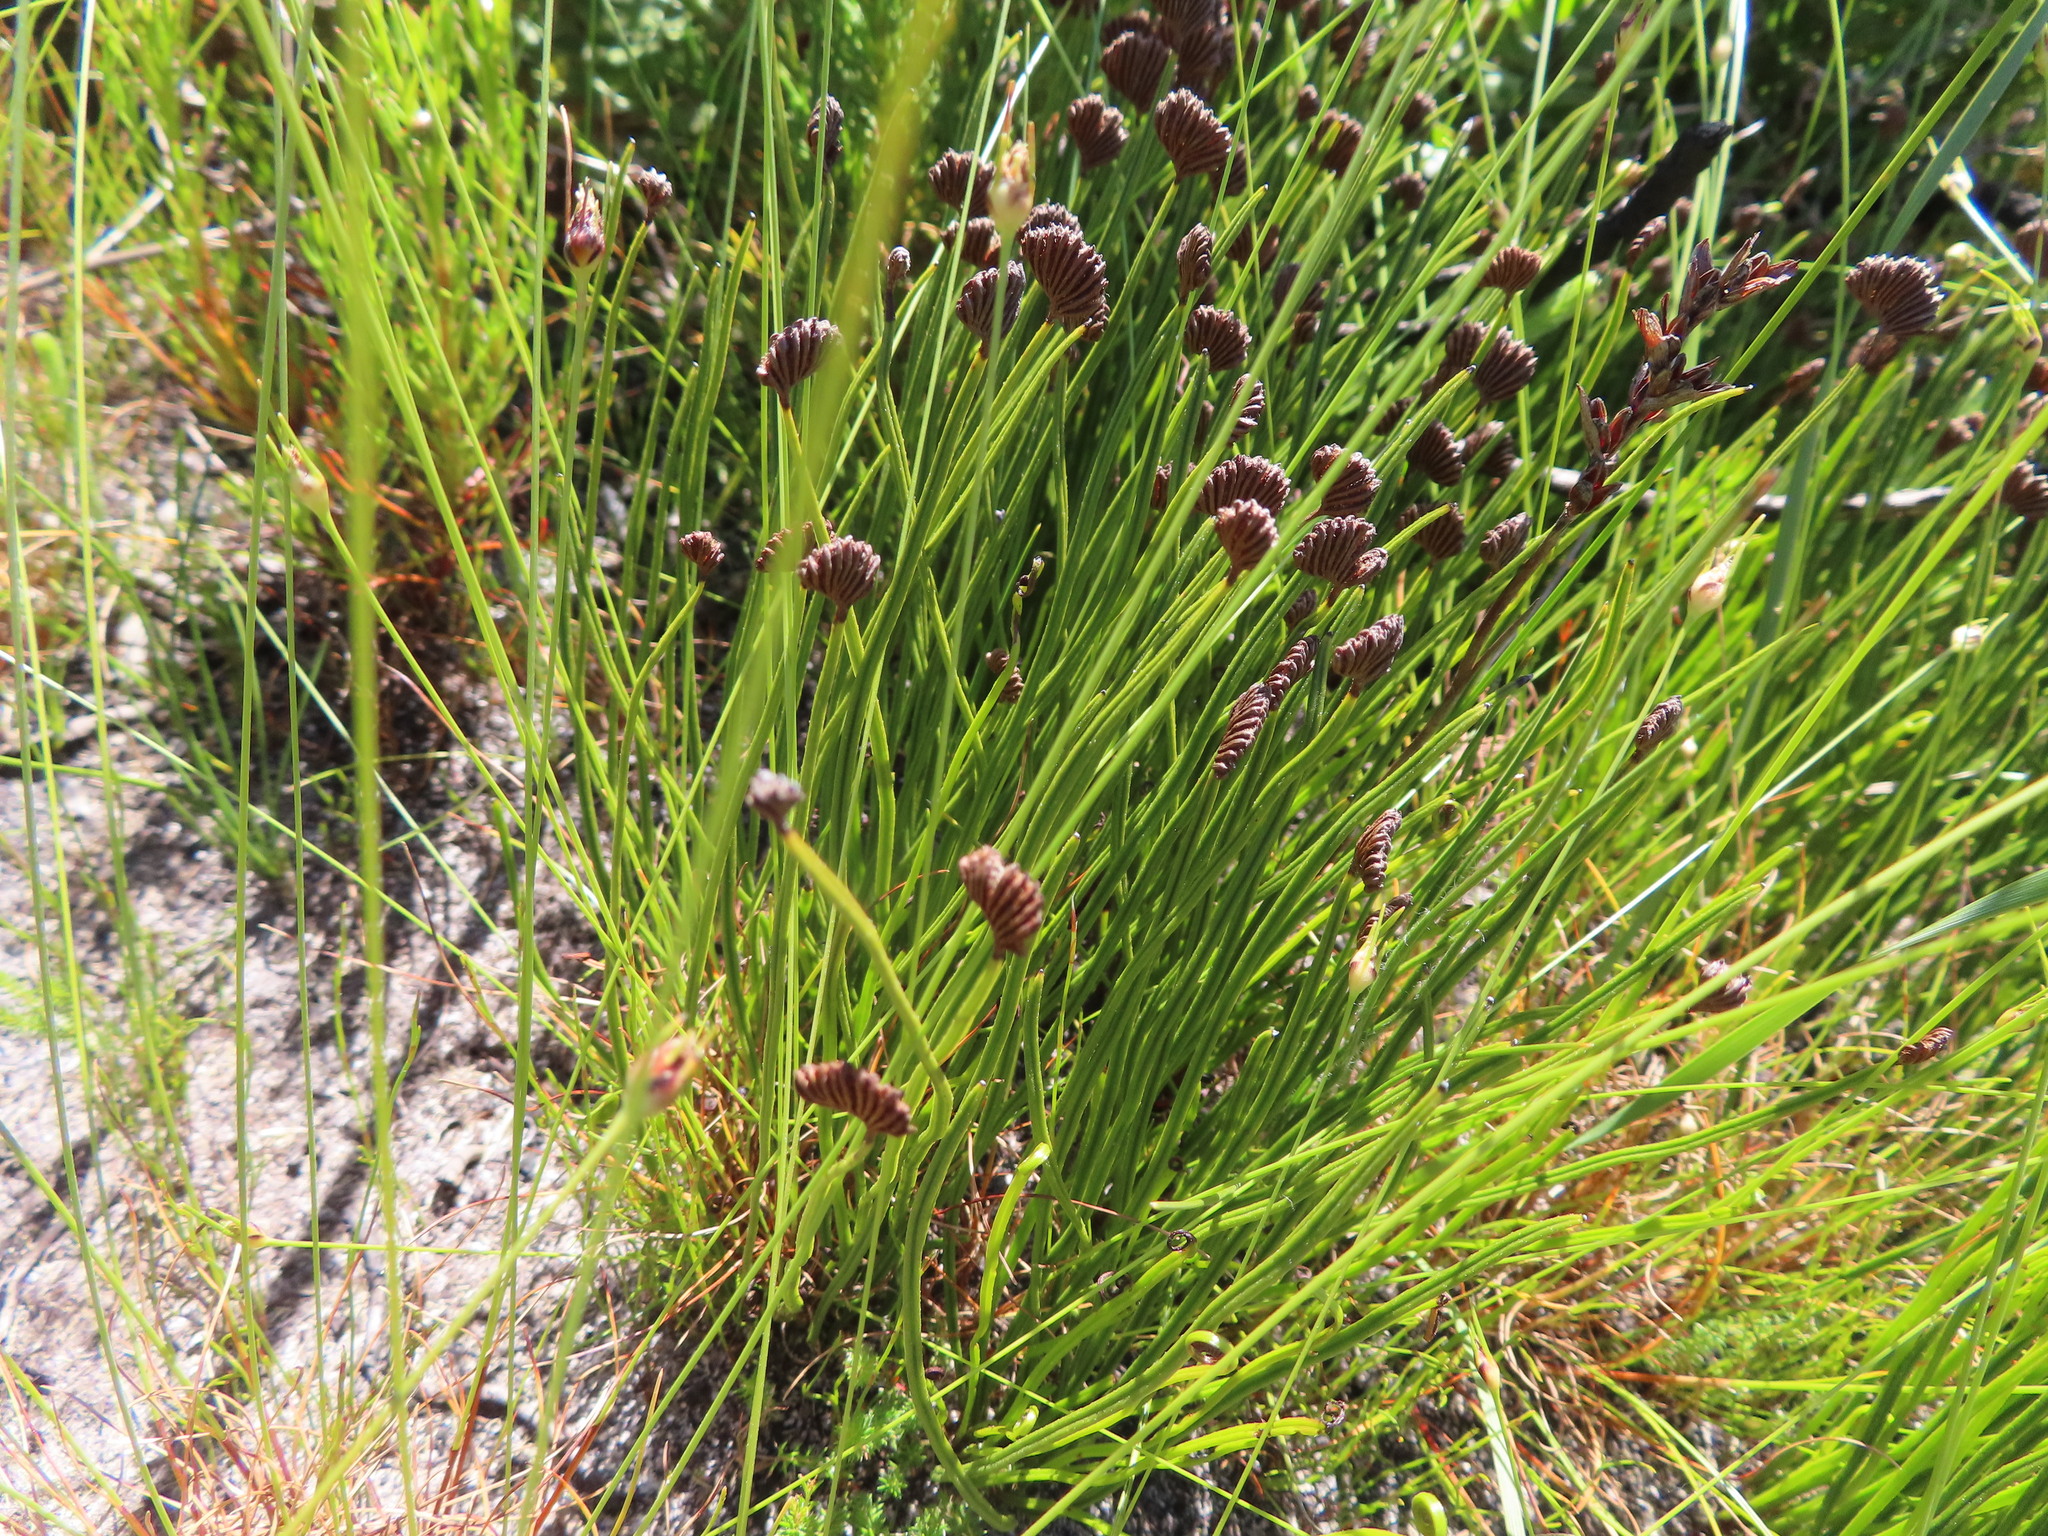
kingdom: Plantae
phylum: Tracheophyta
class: Polypodiopsida
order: Schizaeales
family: Schizaeaceae
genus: Schizaea
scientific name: Schizaea pectinata
